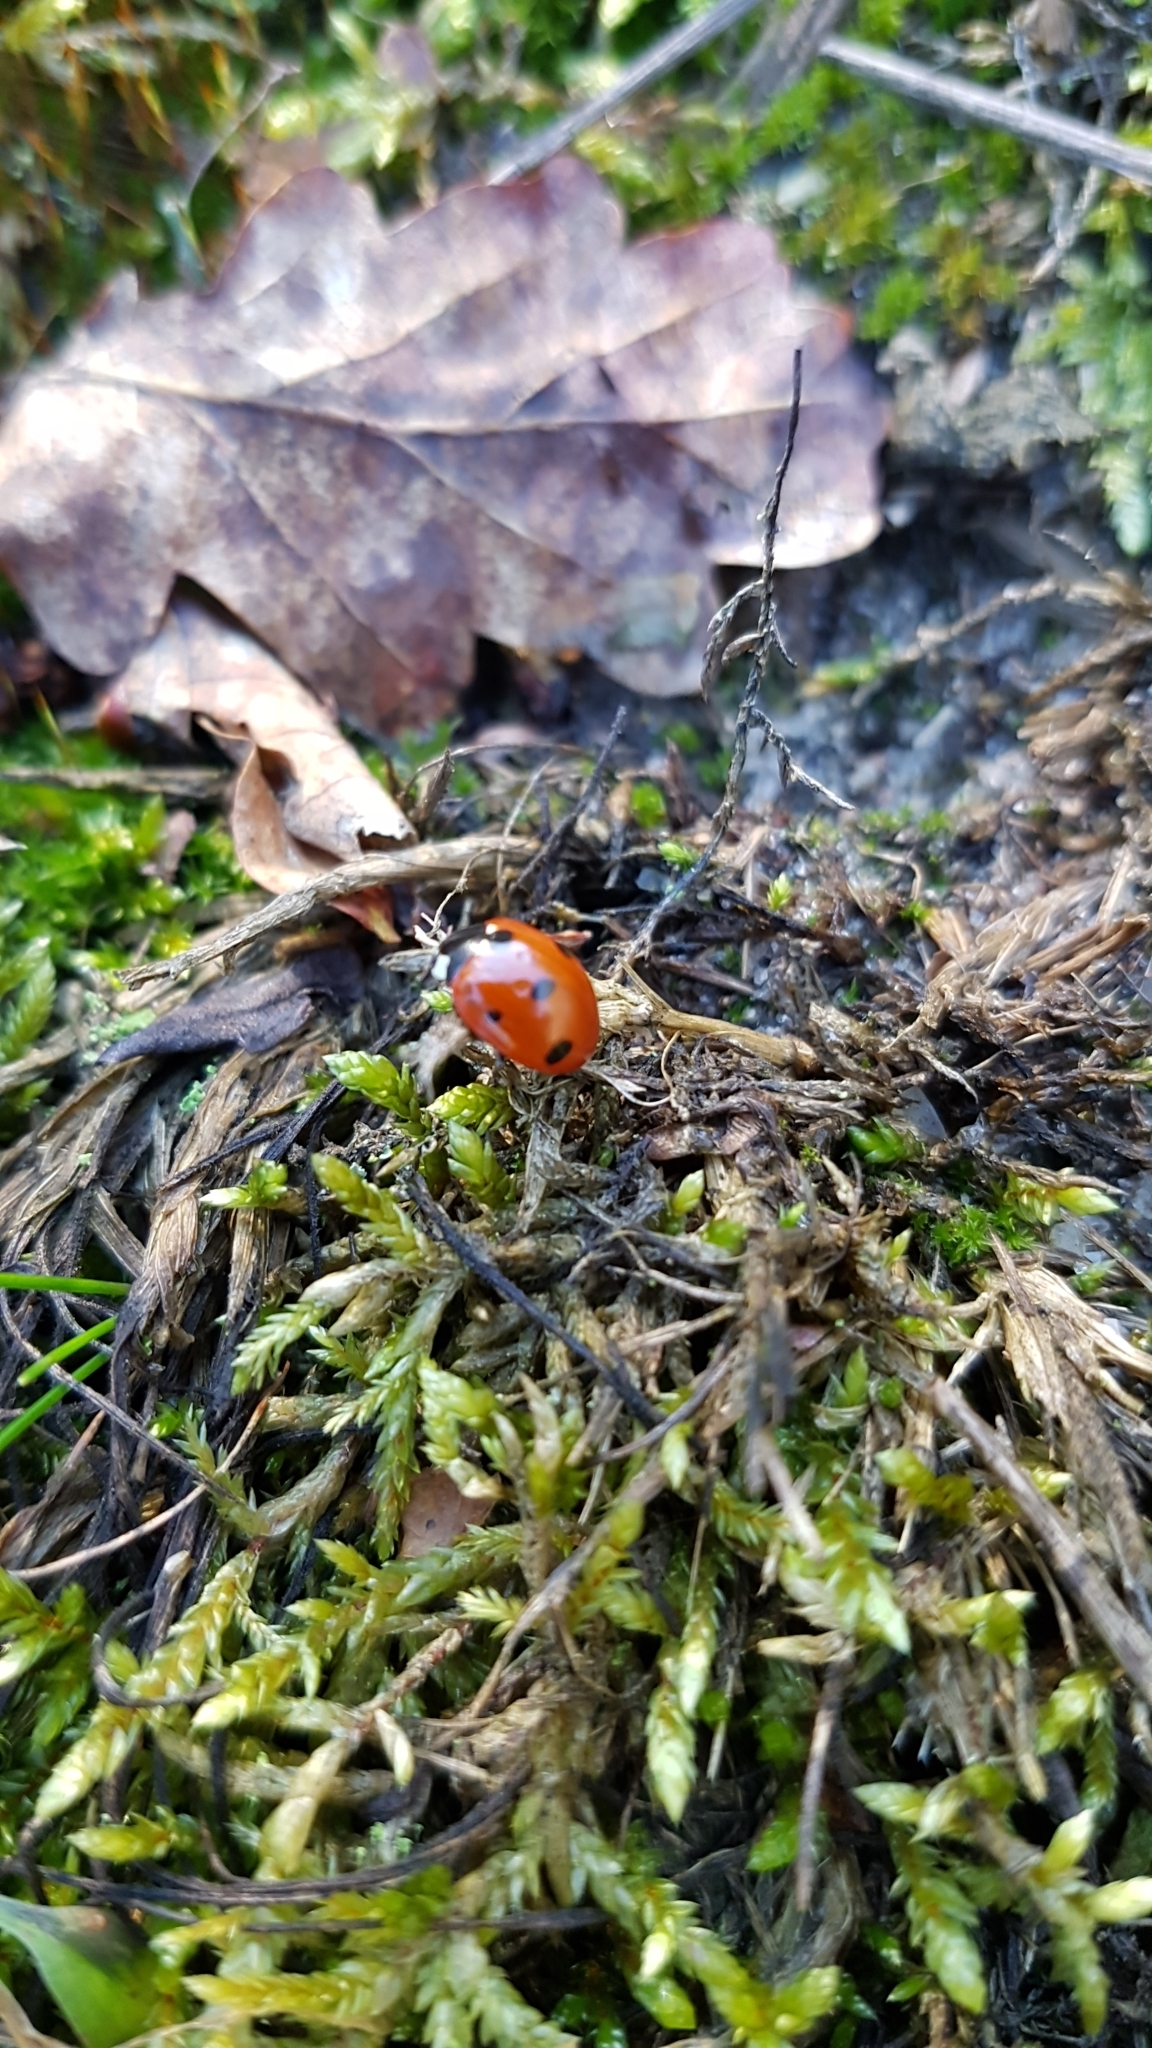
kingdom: Animalia
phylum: Arthropoda
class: Insecta
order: Coleoptera
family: Coccinellidae
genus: Coccinella
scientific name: Coccinella septempunctata
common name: Sevenspotted lady beetle
